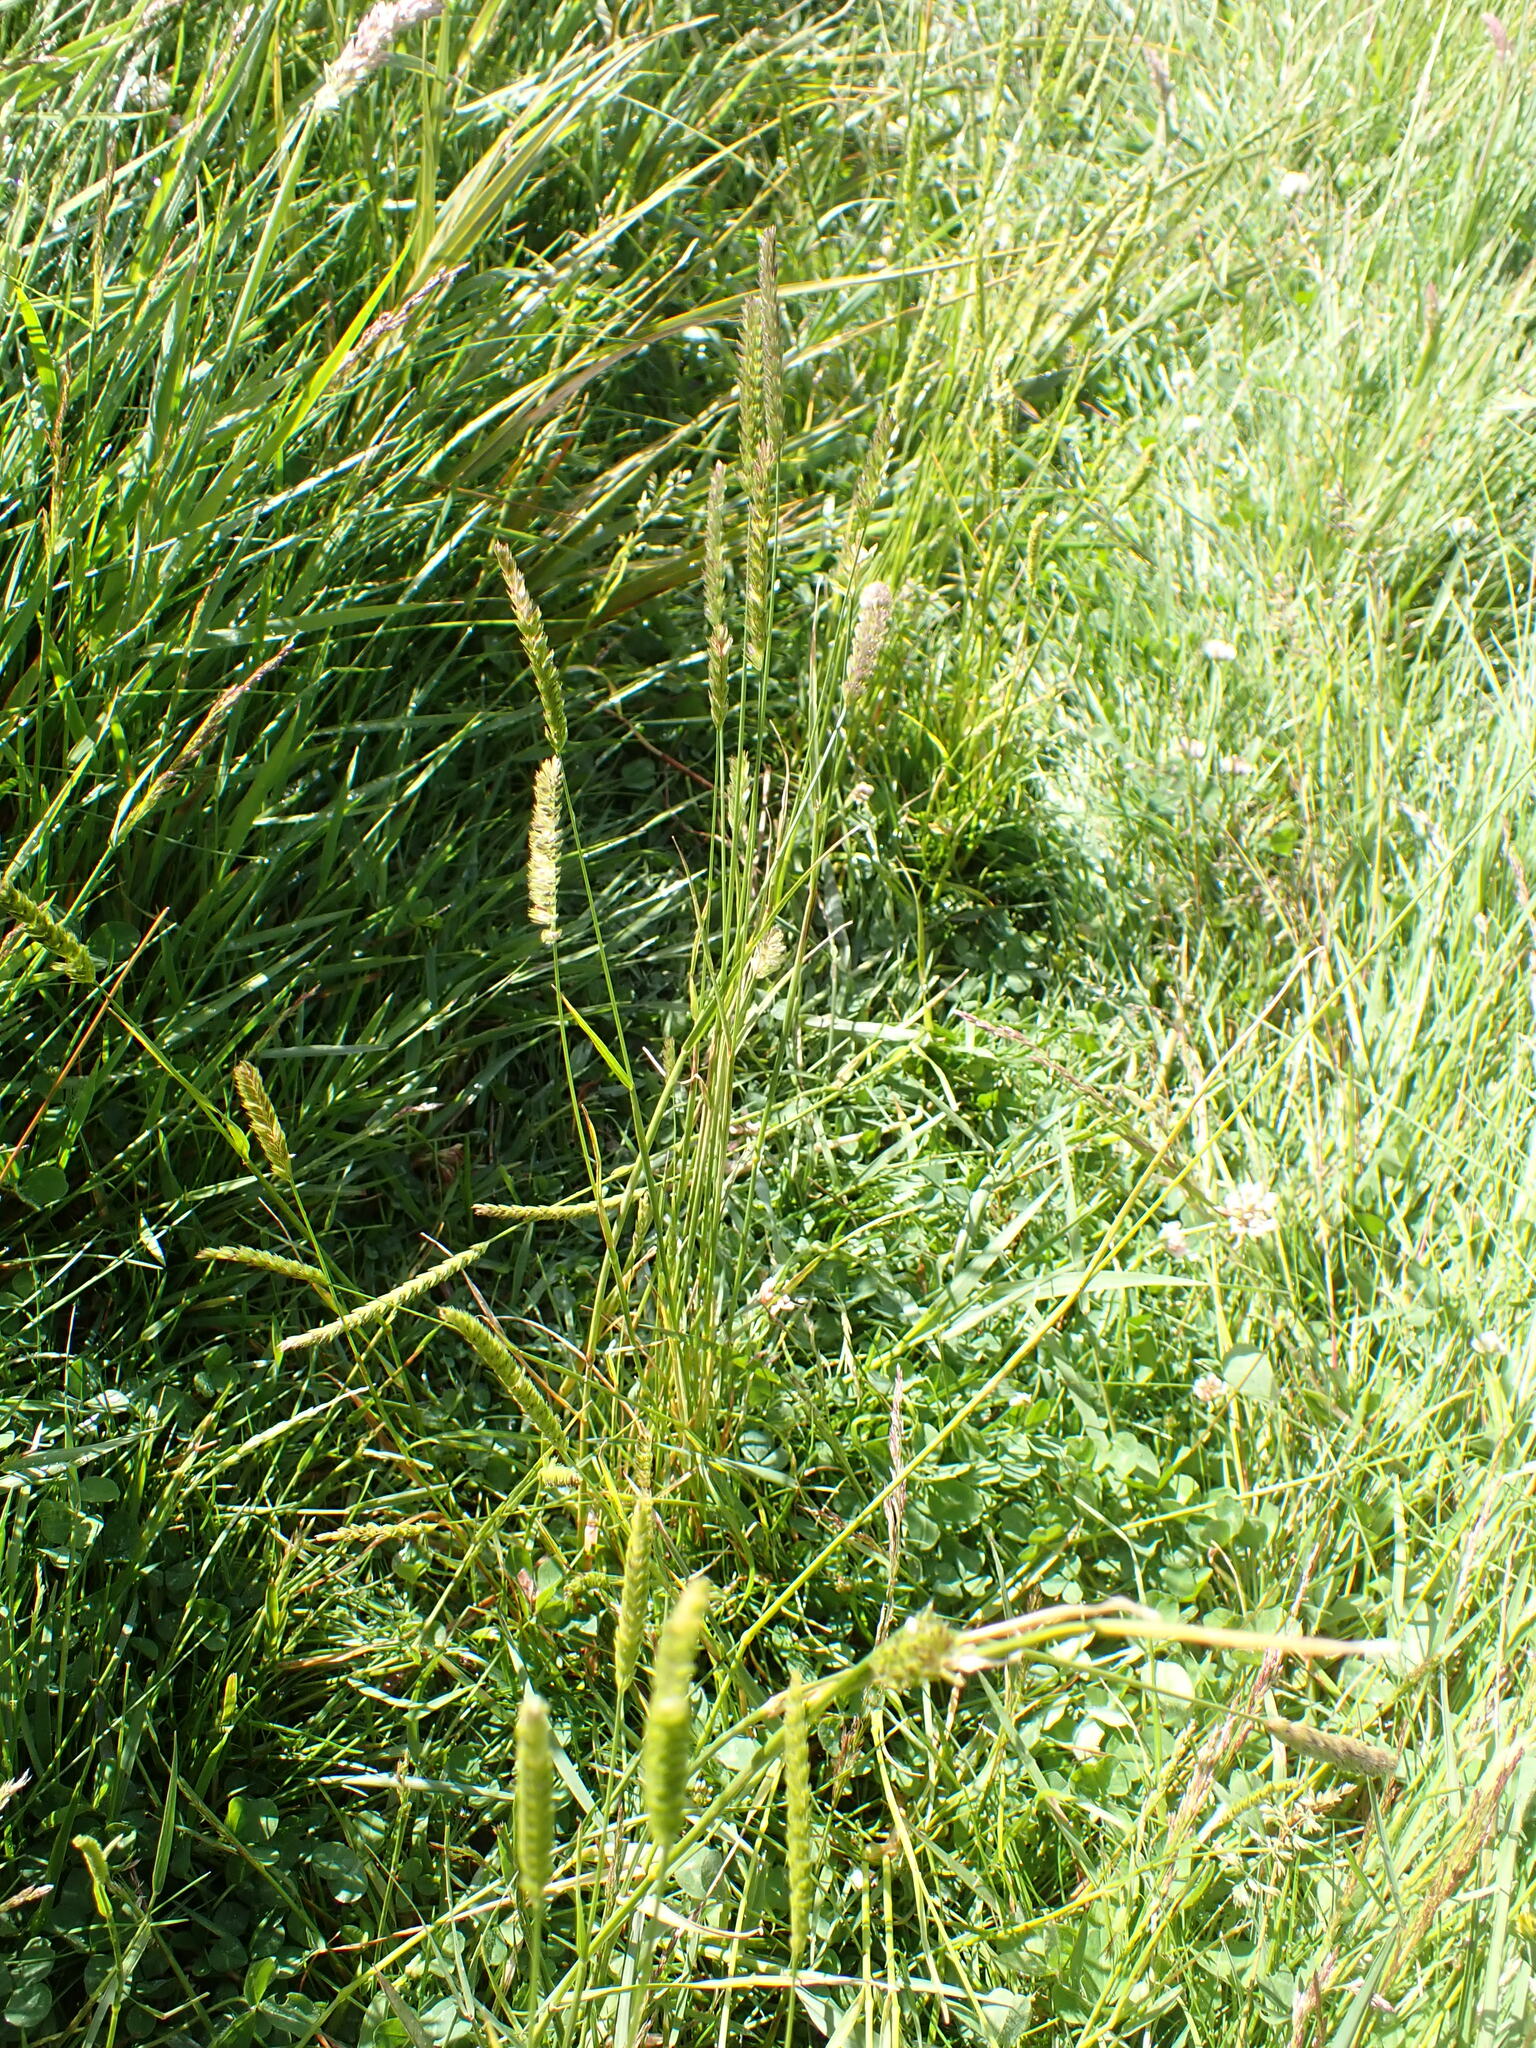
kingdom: Plantae
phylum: Tracheophyta
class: Liliopsida
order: Poales
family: Poaceae
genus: Cynosurus
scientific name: Cynosurus cristatus
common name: Crested dog's-tail
